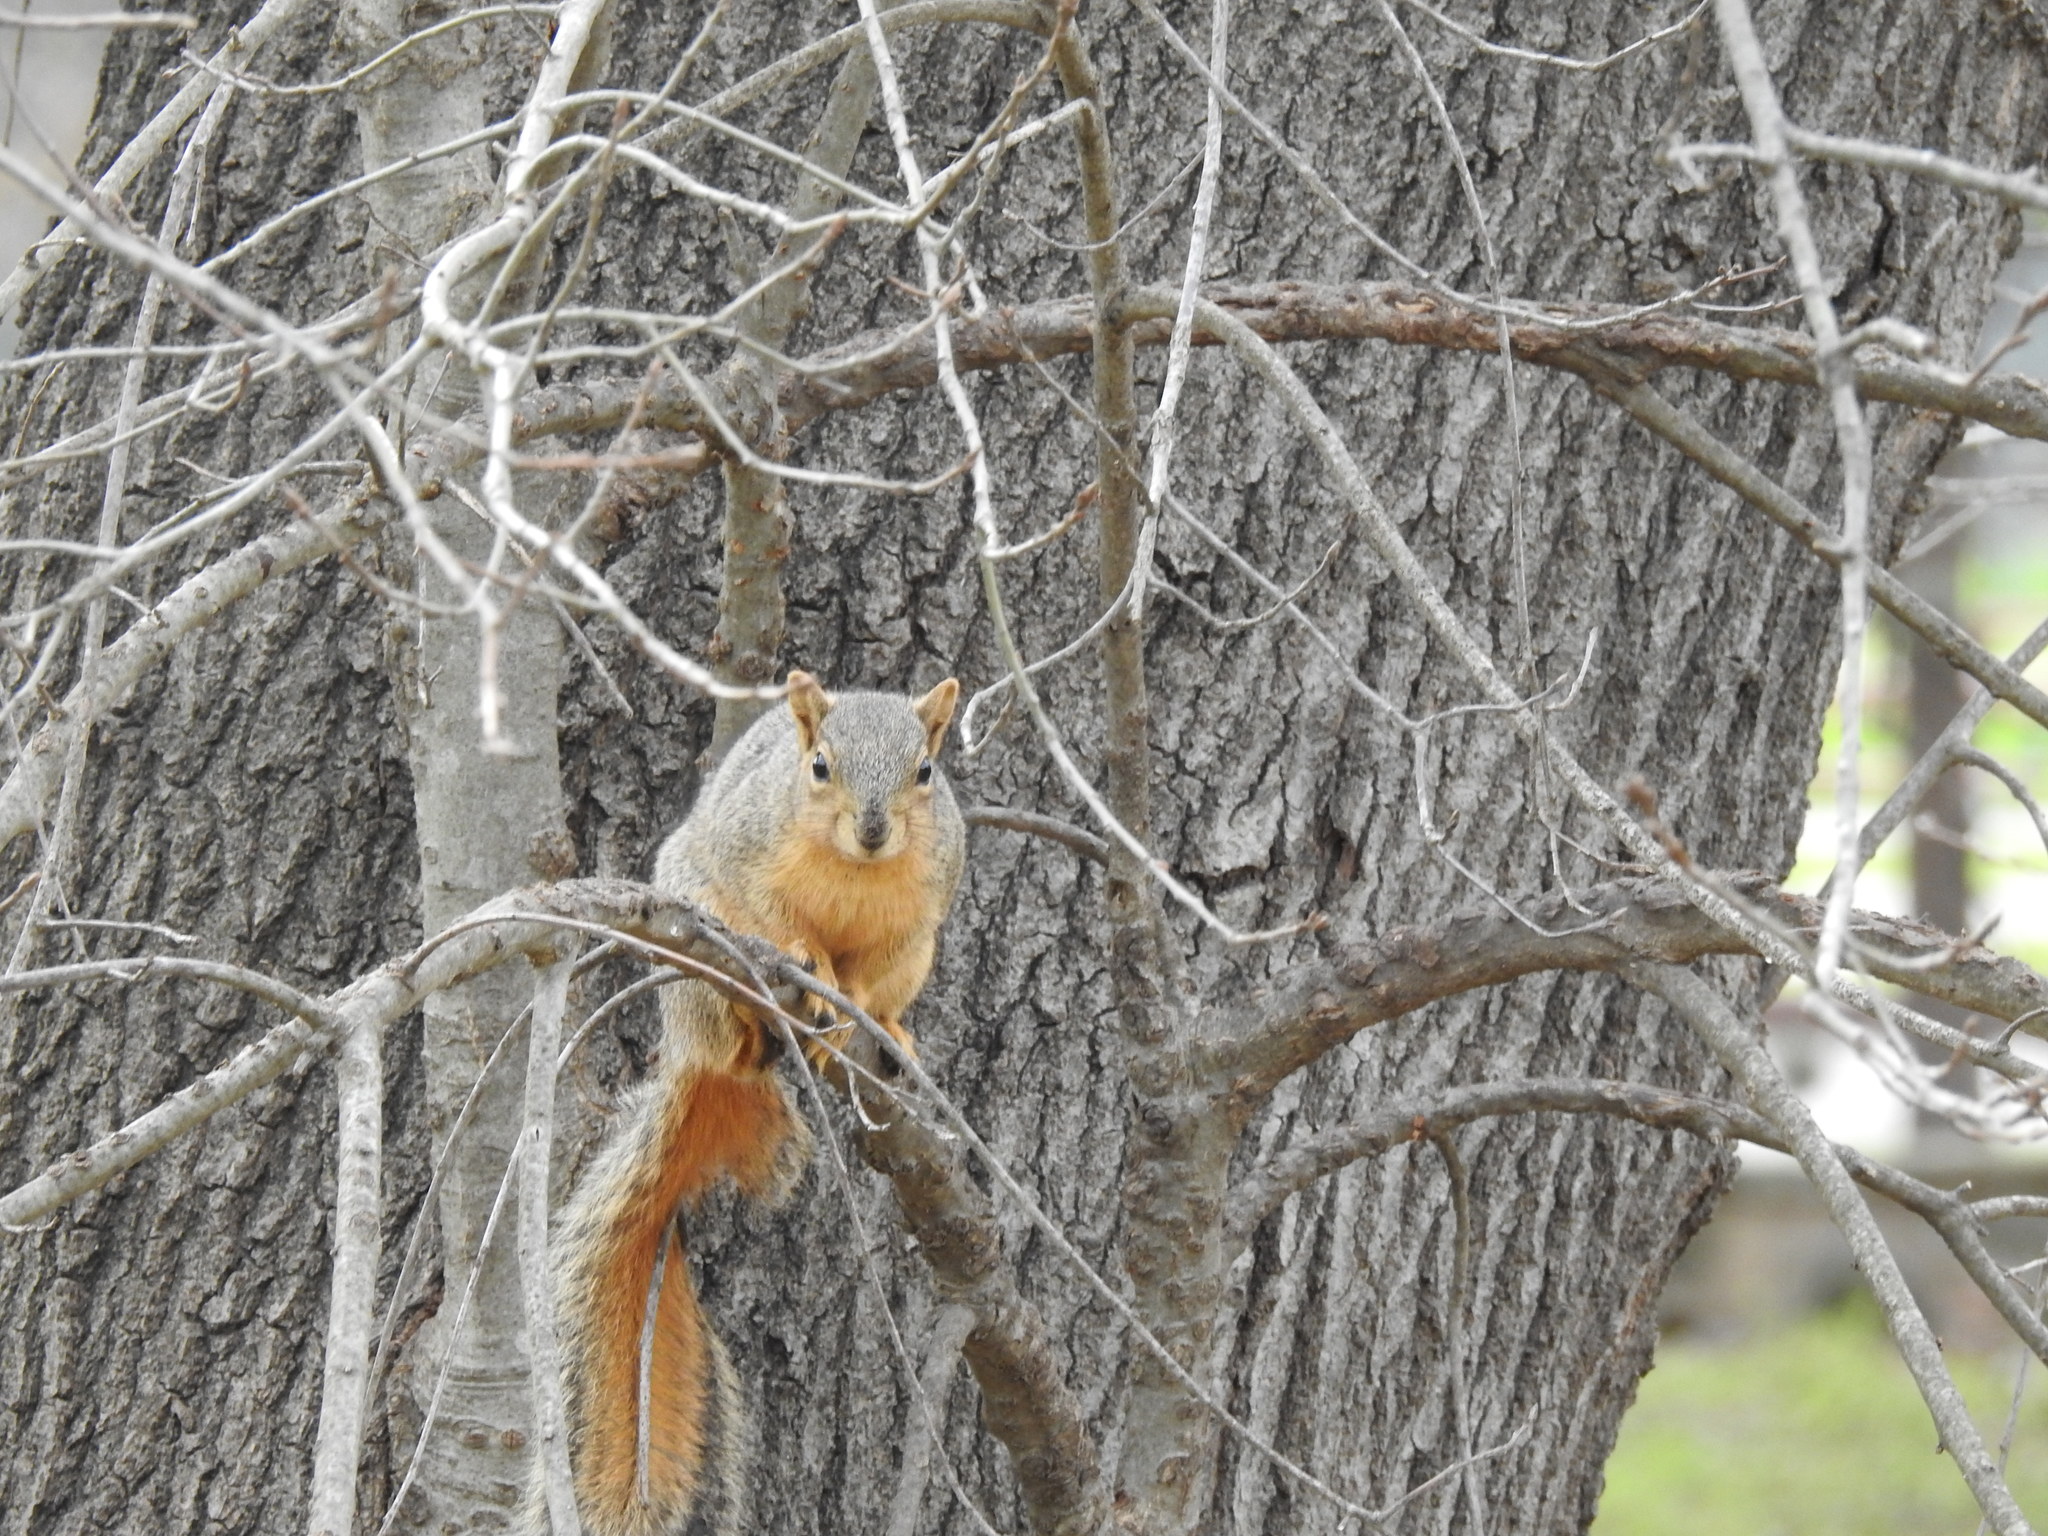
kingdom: Animalia
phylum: Chordata
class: Mammalia
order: Rodentia
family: Sciuridae
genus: Sciurus
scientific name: Sciurus niger
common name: Fox squirrel
